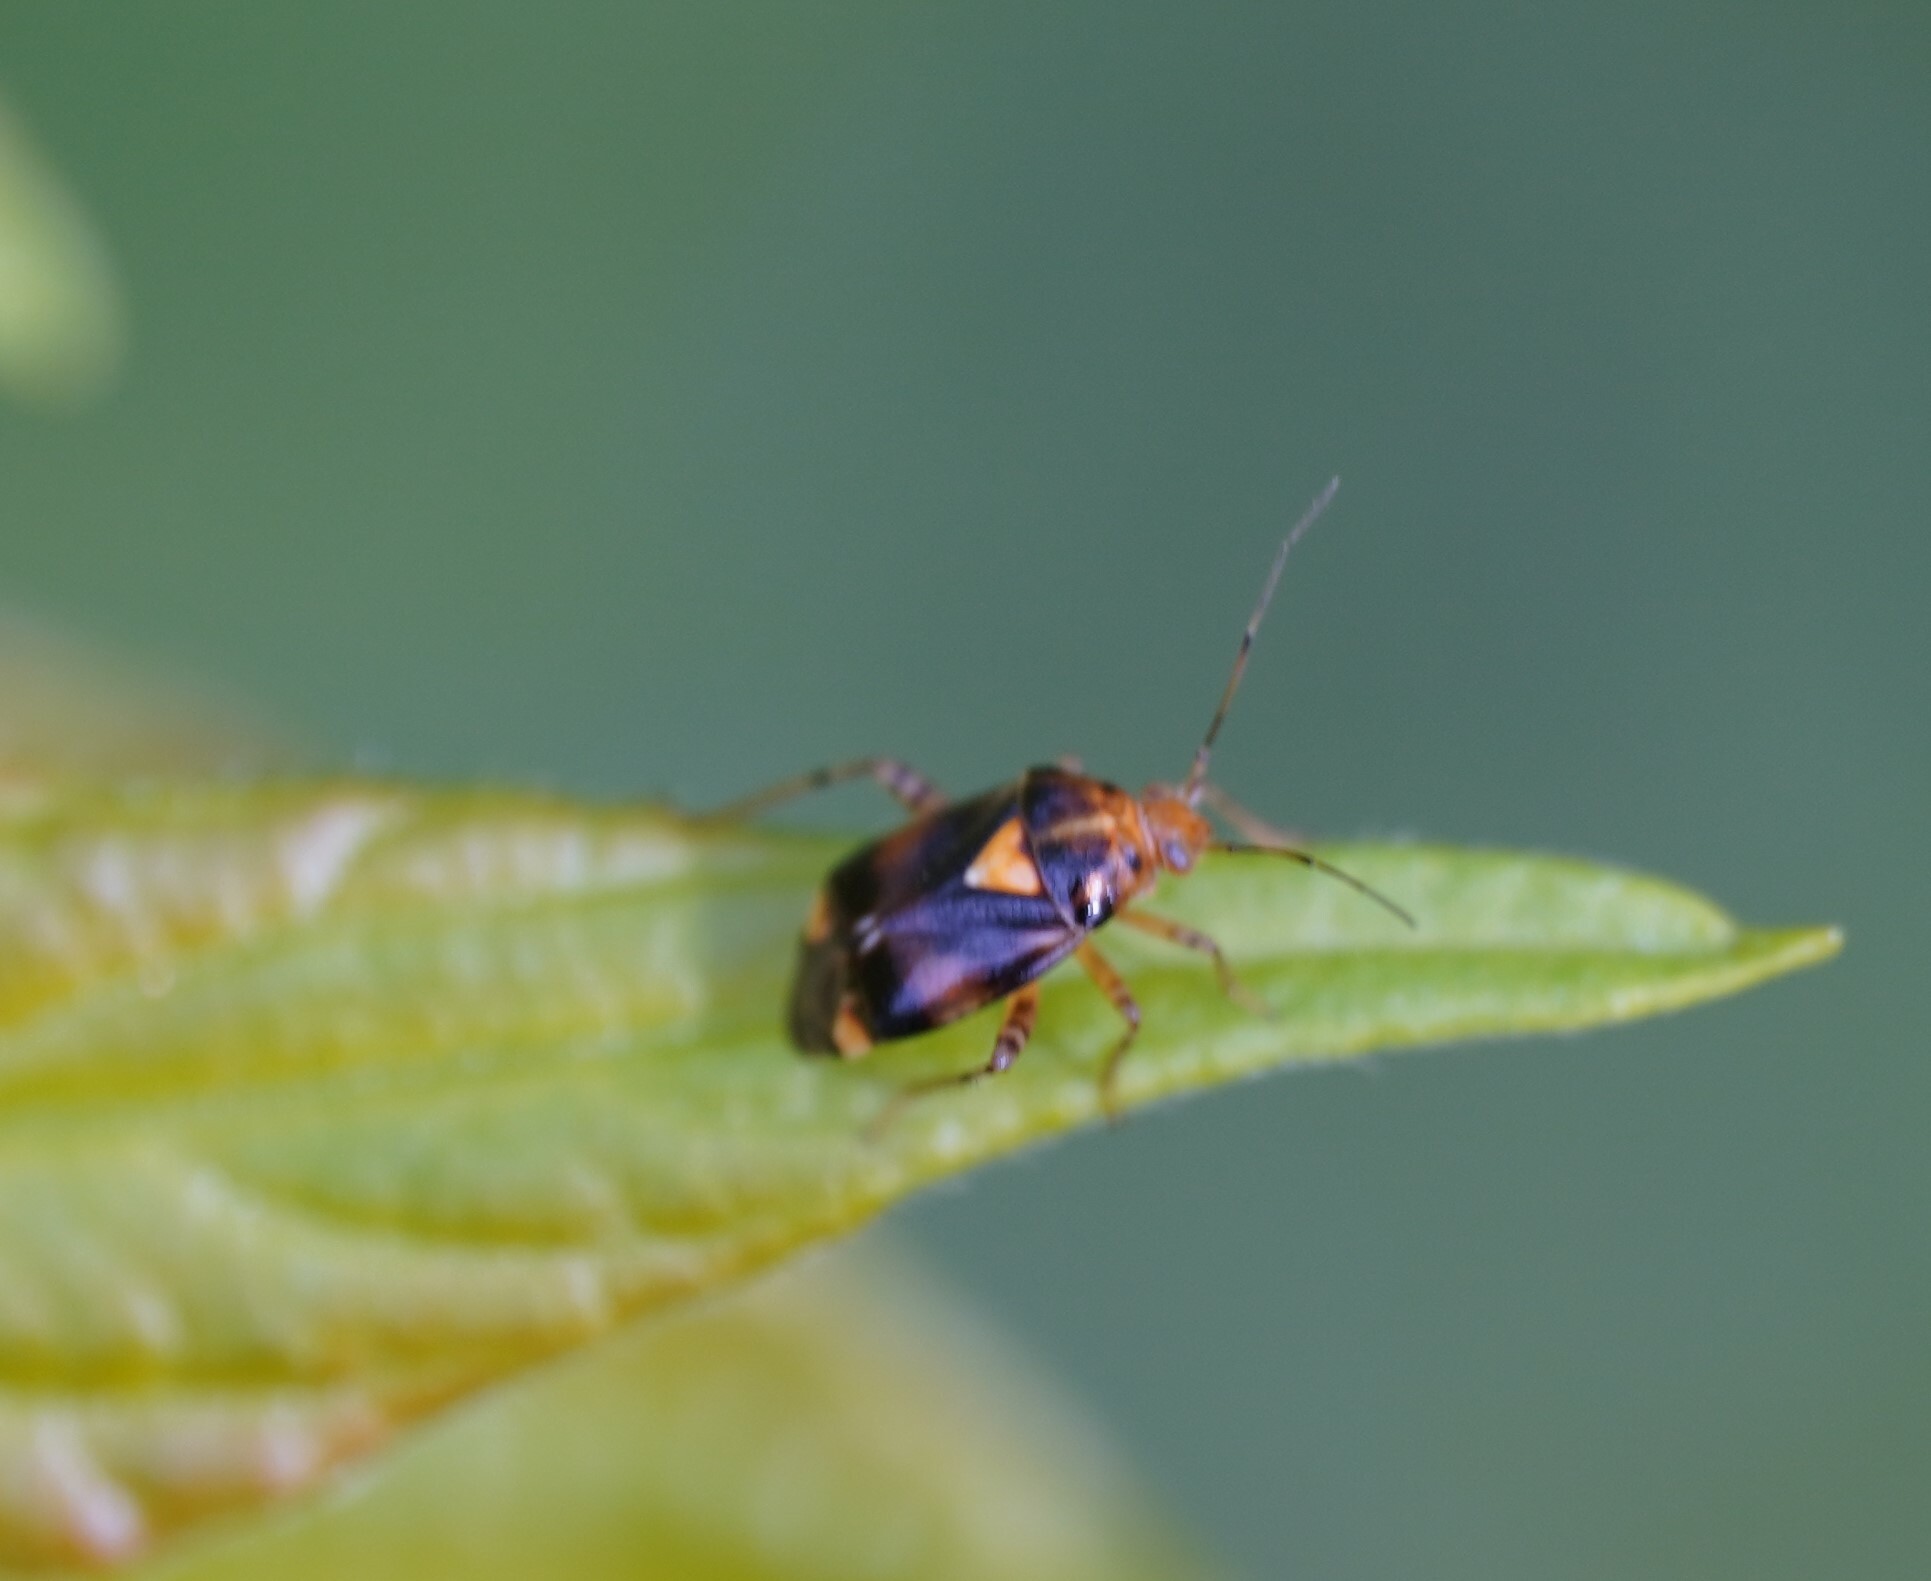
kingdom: Animalia
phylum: Arthropoda
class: Insecta
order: Hemiptera
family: Miridae
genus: Liocoris
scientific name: Liocoris tripustulatus
